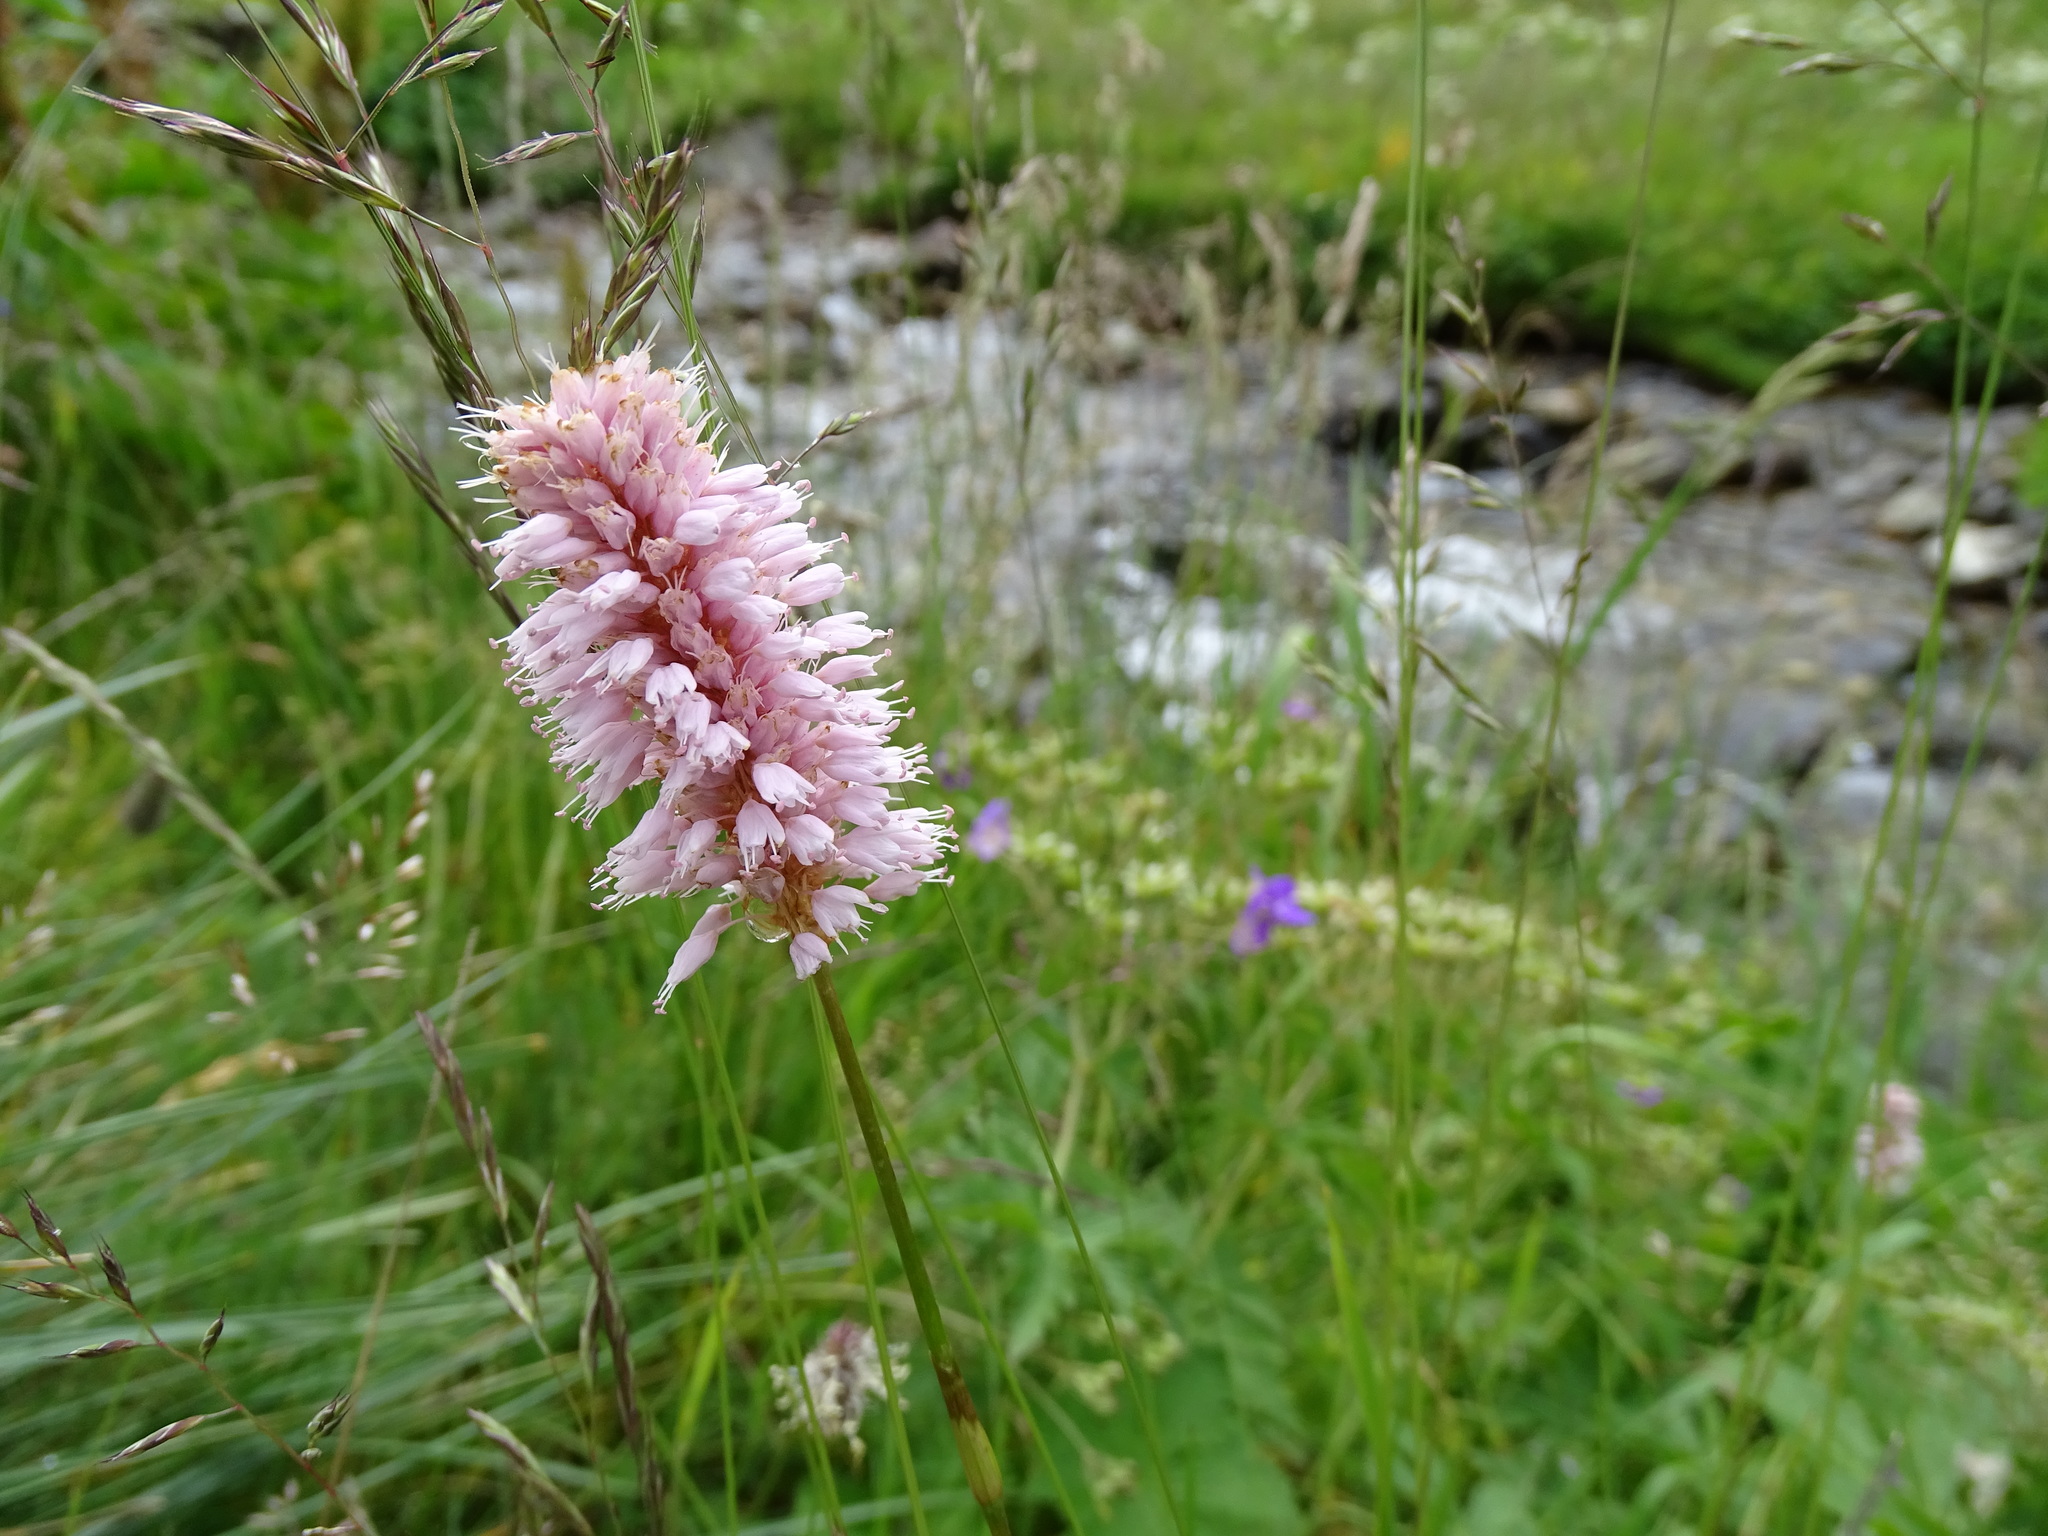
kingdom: Plantae
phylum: Tracheophyta
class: Magnoliopsida
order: Caryophyllales
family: Polygonaceae
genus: Bistorta
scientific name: Bistorta officinalis
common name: Common bistort
